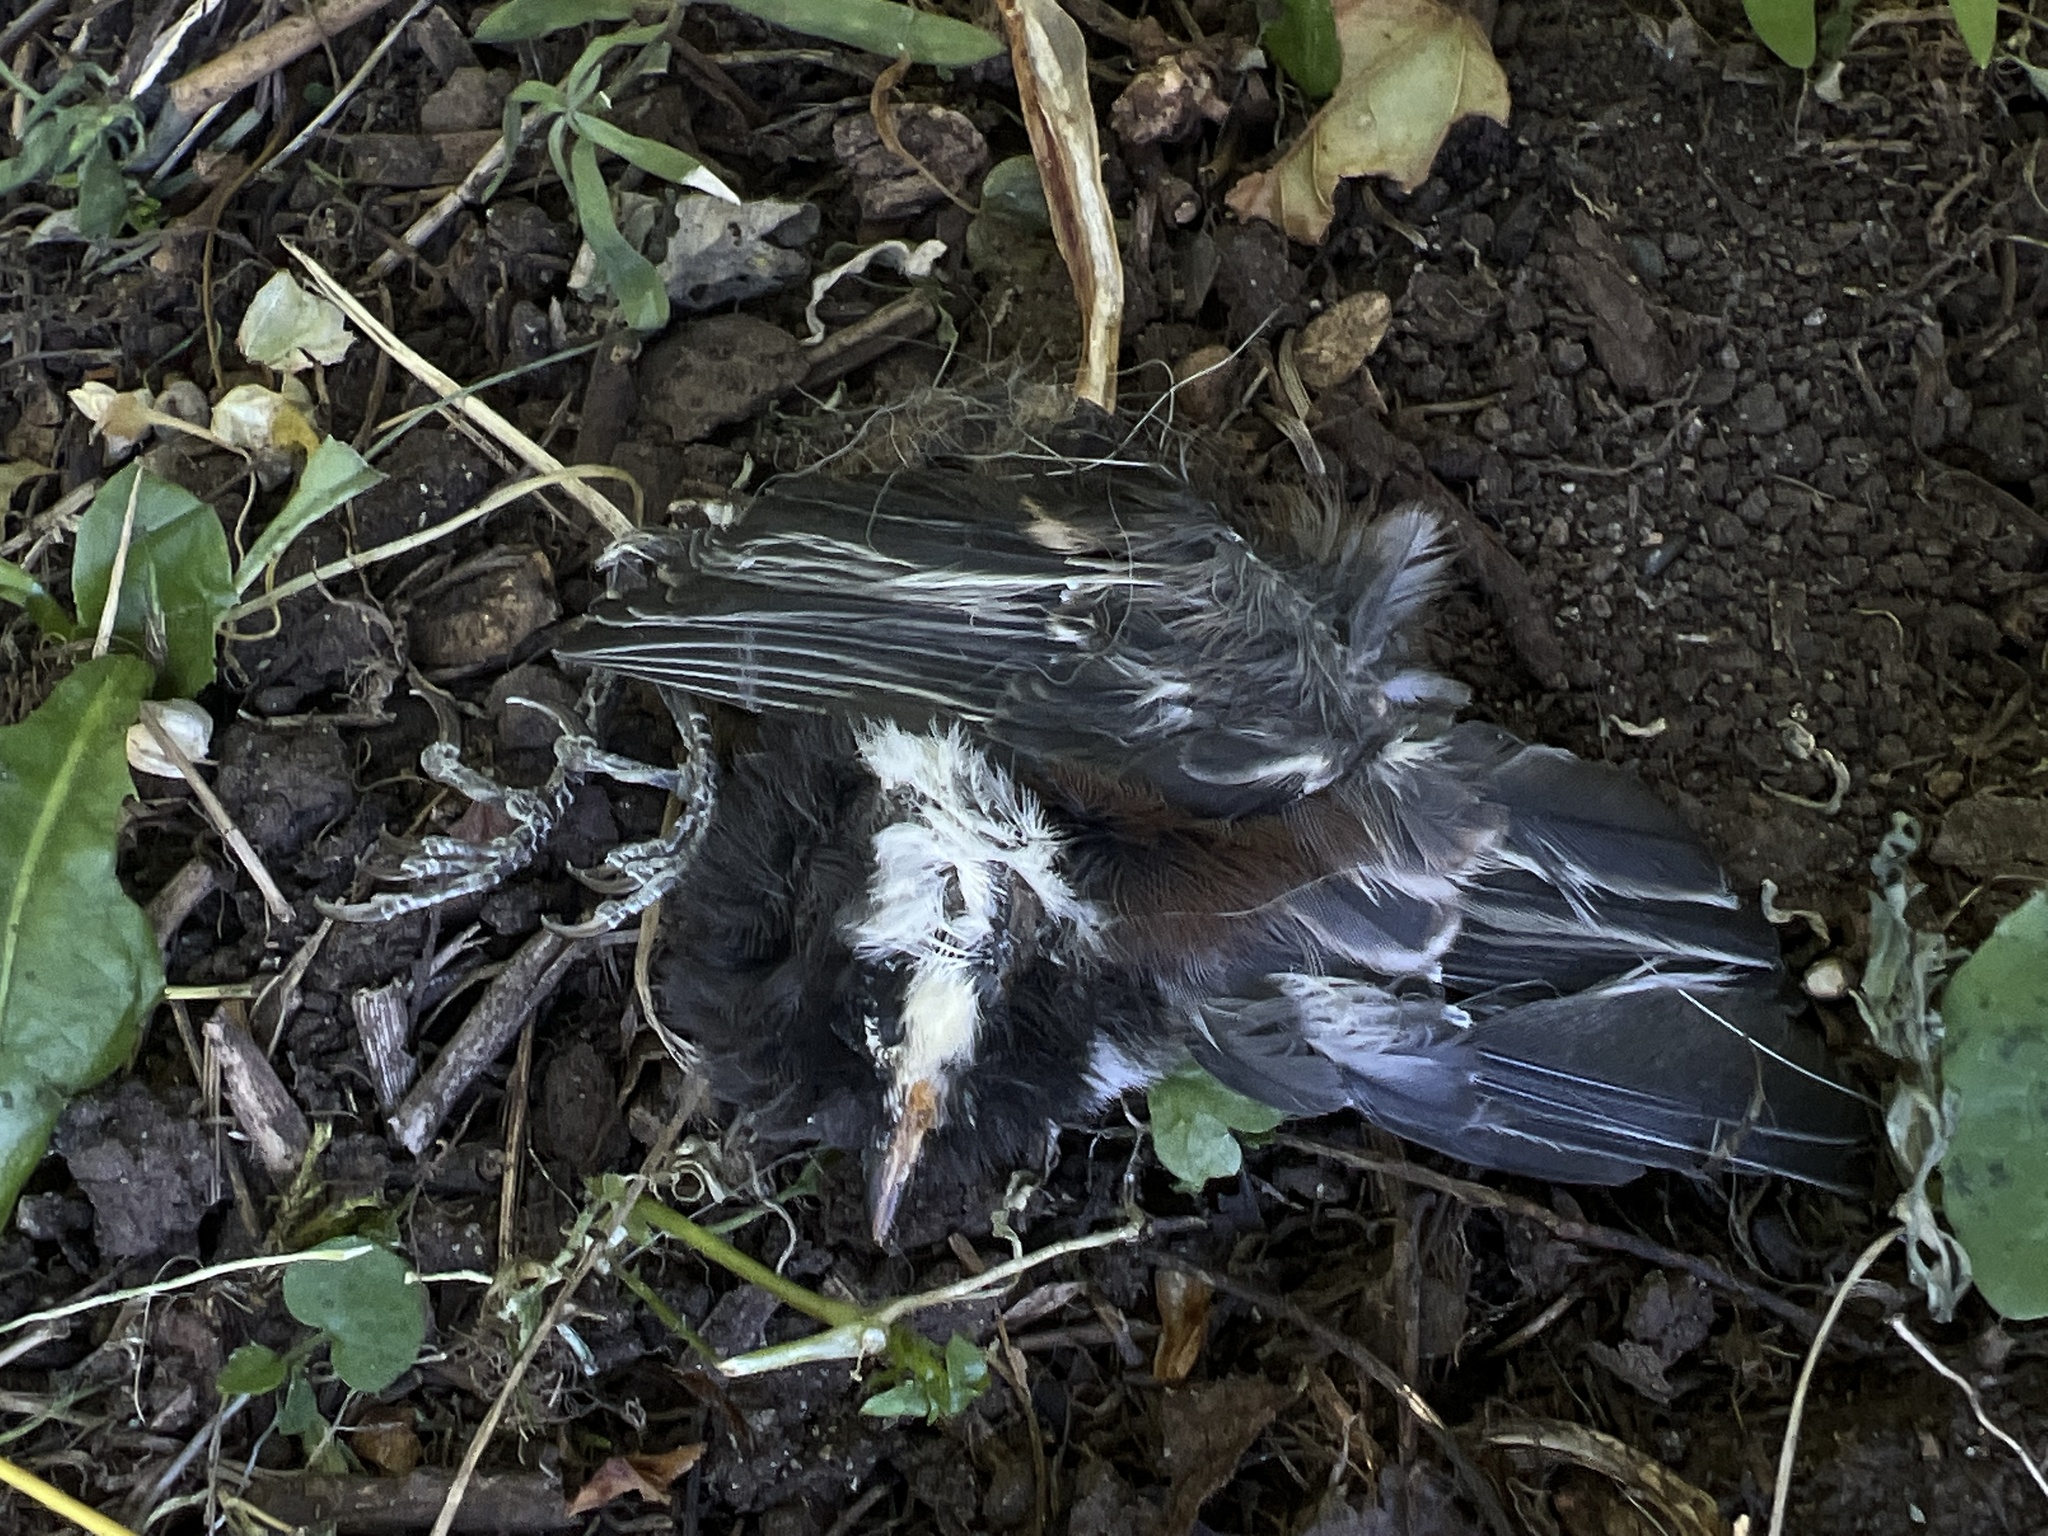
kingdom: Animalia
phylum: Chordata
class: Aves
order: Passeriformes
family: Paridae
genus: Poecile
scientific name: Poecile rufescens
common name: Chestnut-backed chickadee
